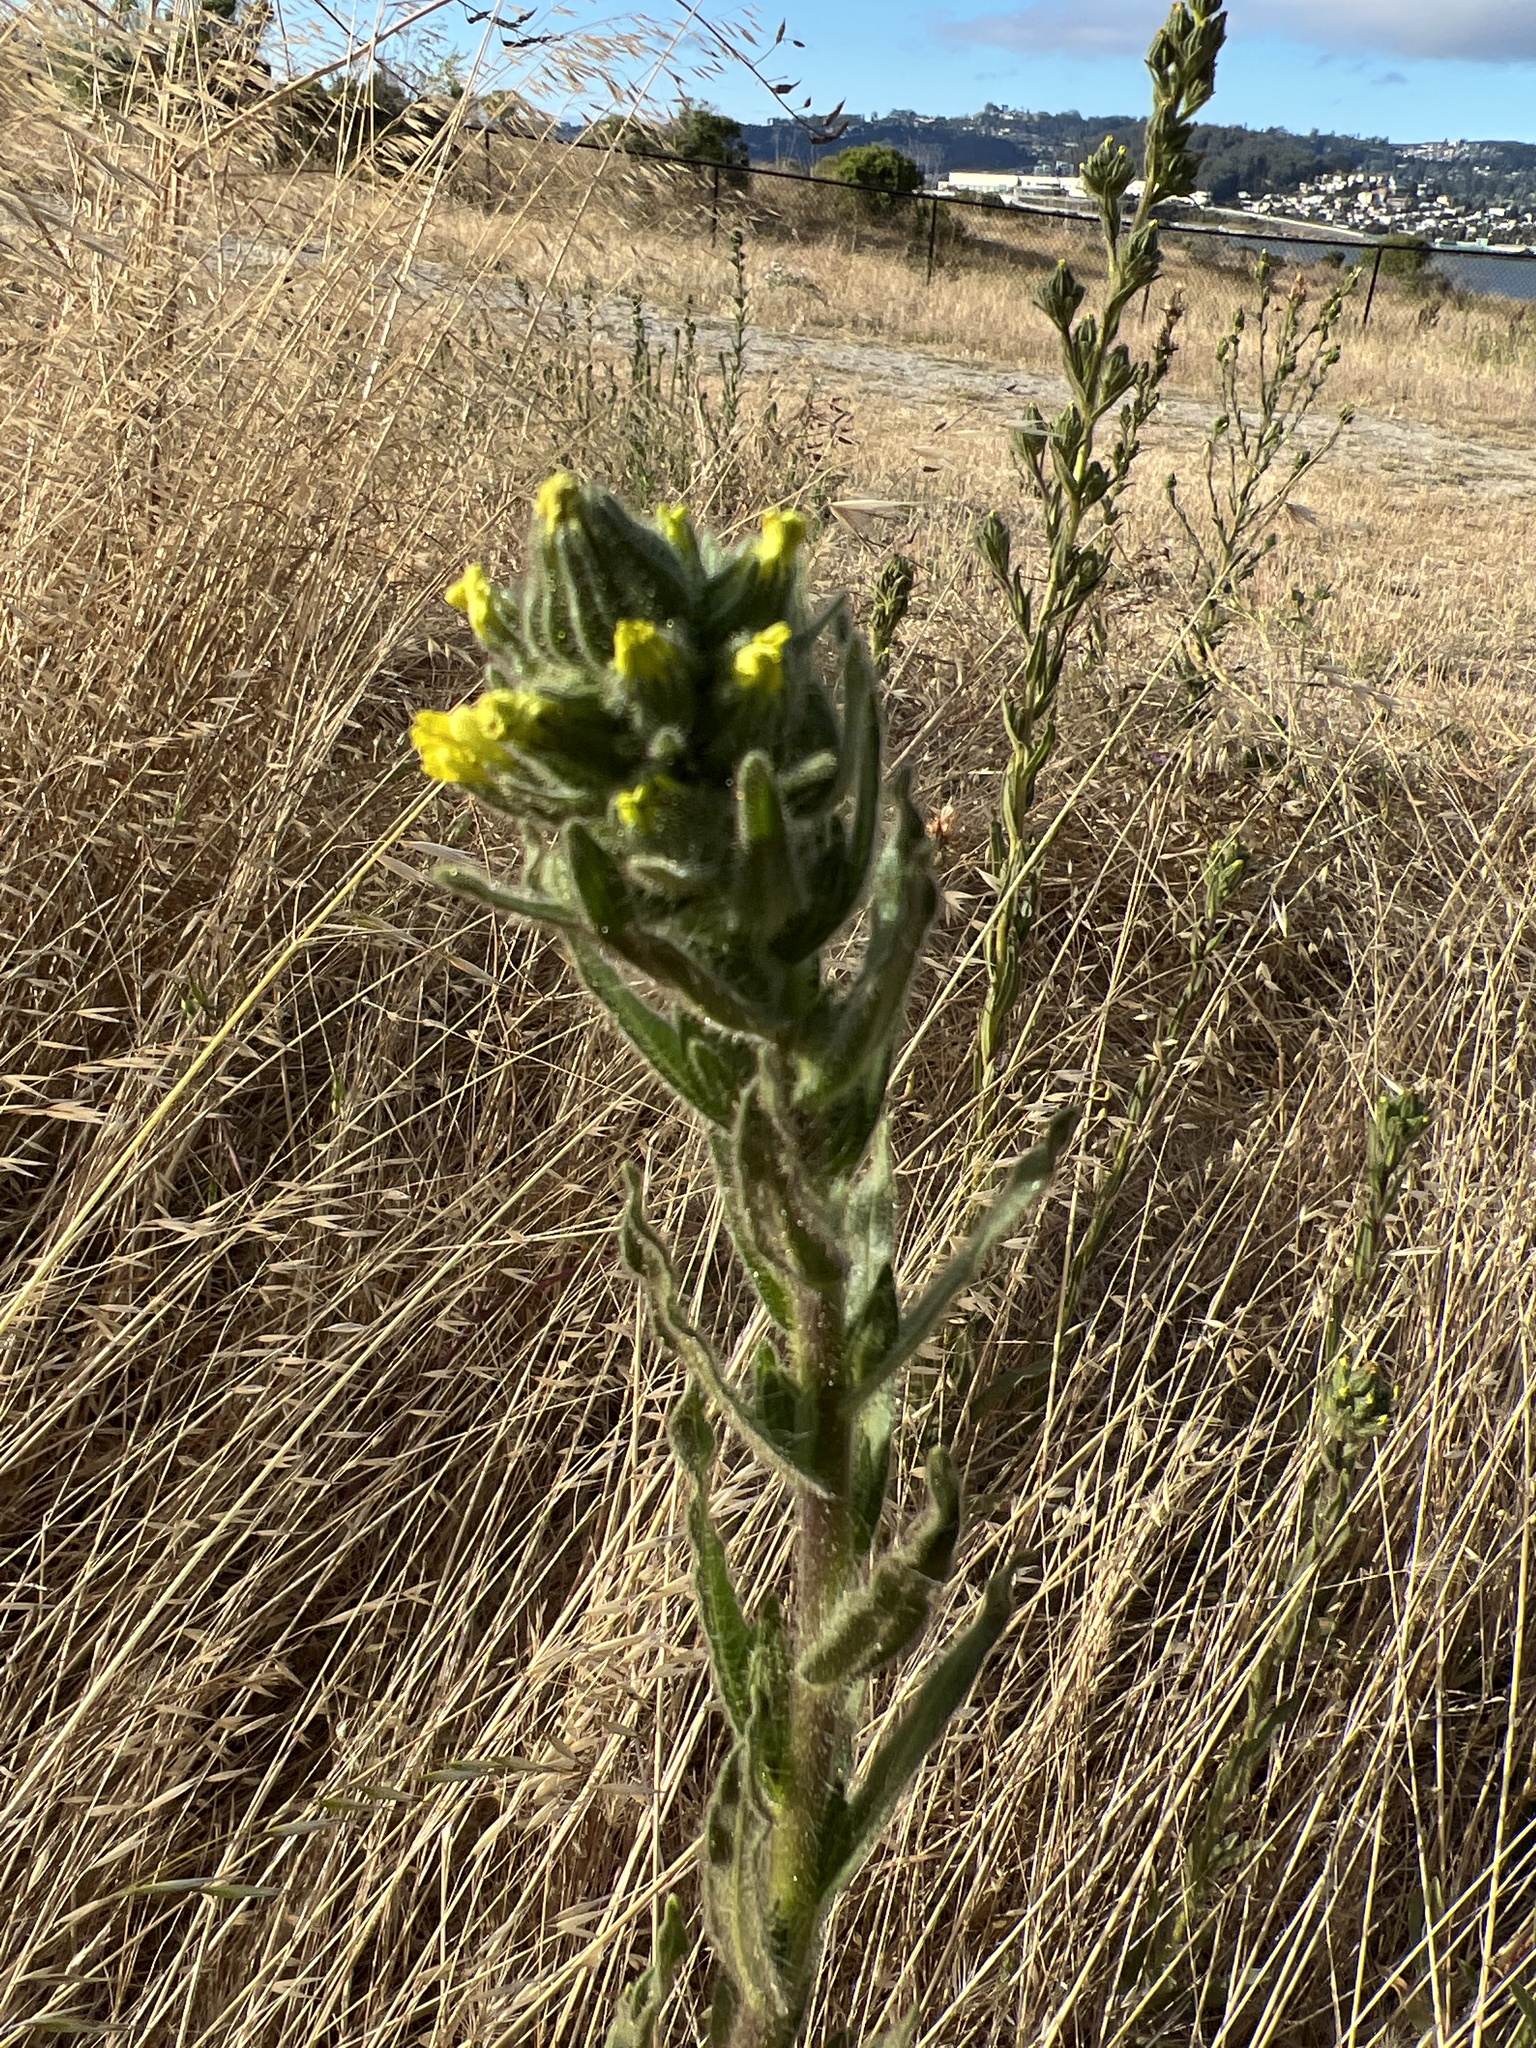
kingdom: Plantae
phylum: Tracheophyta
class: Magnoliopsida
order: Asterales
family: Asteraceae
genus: Madia
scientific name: Madia sativa
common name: Coast tarweed
